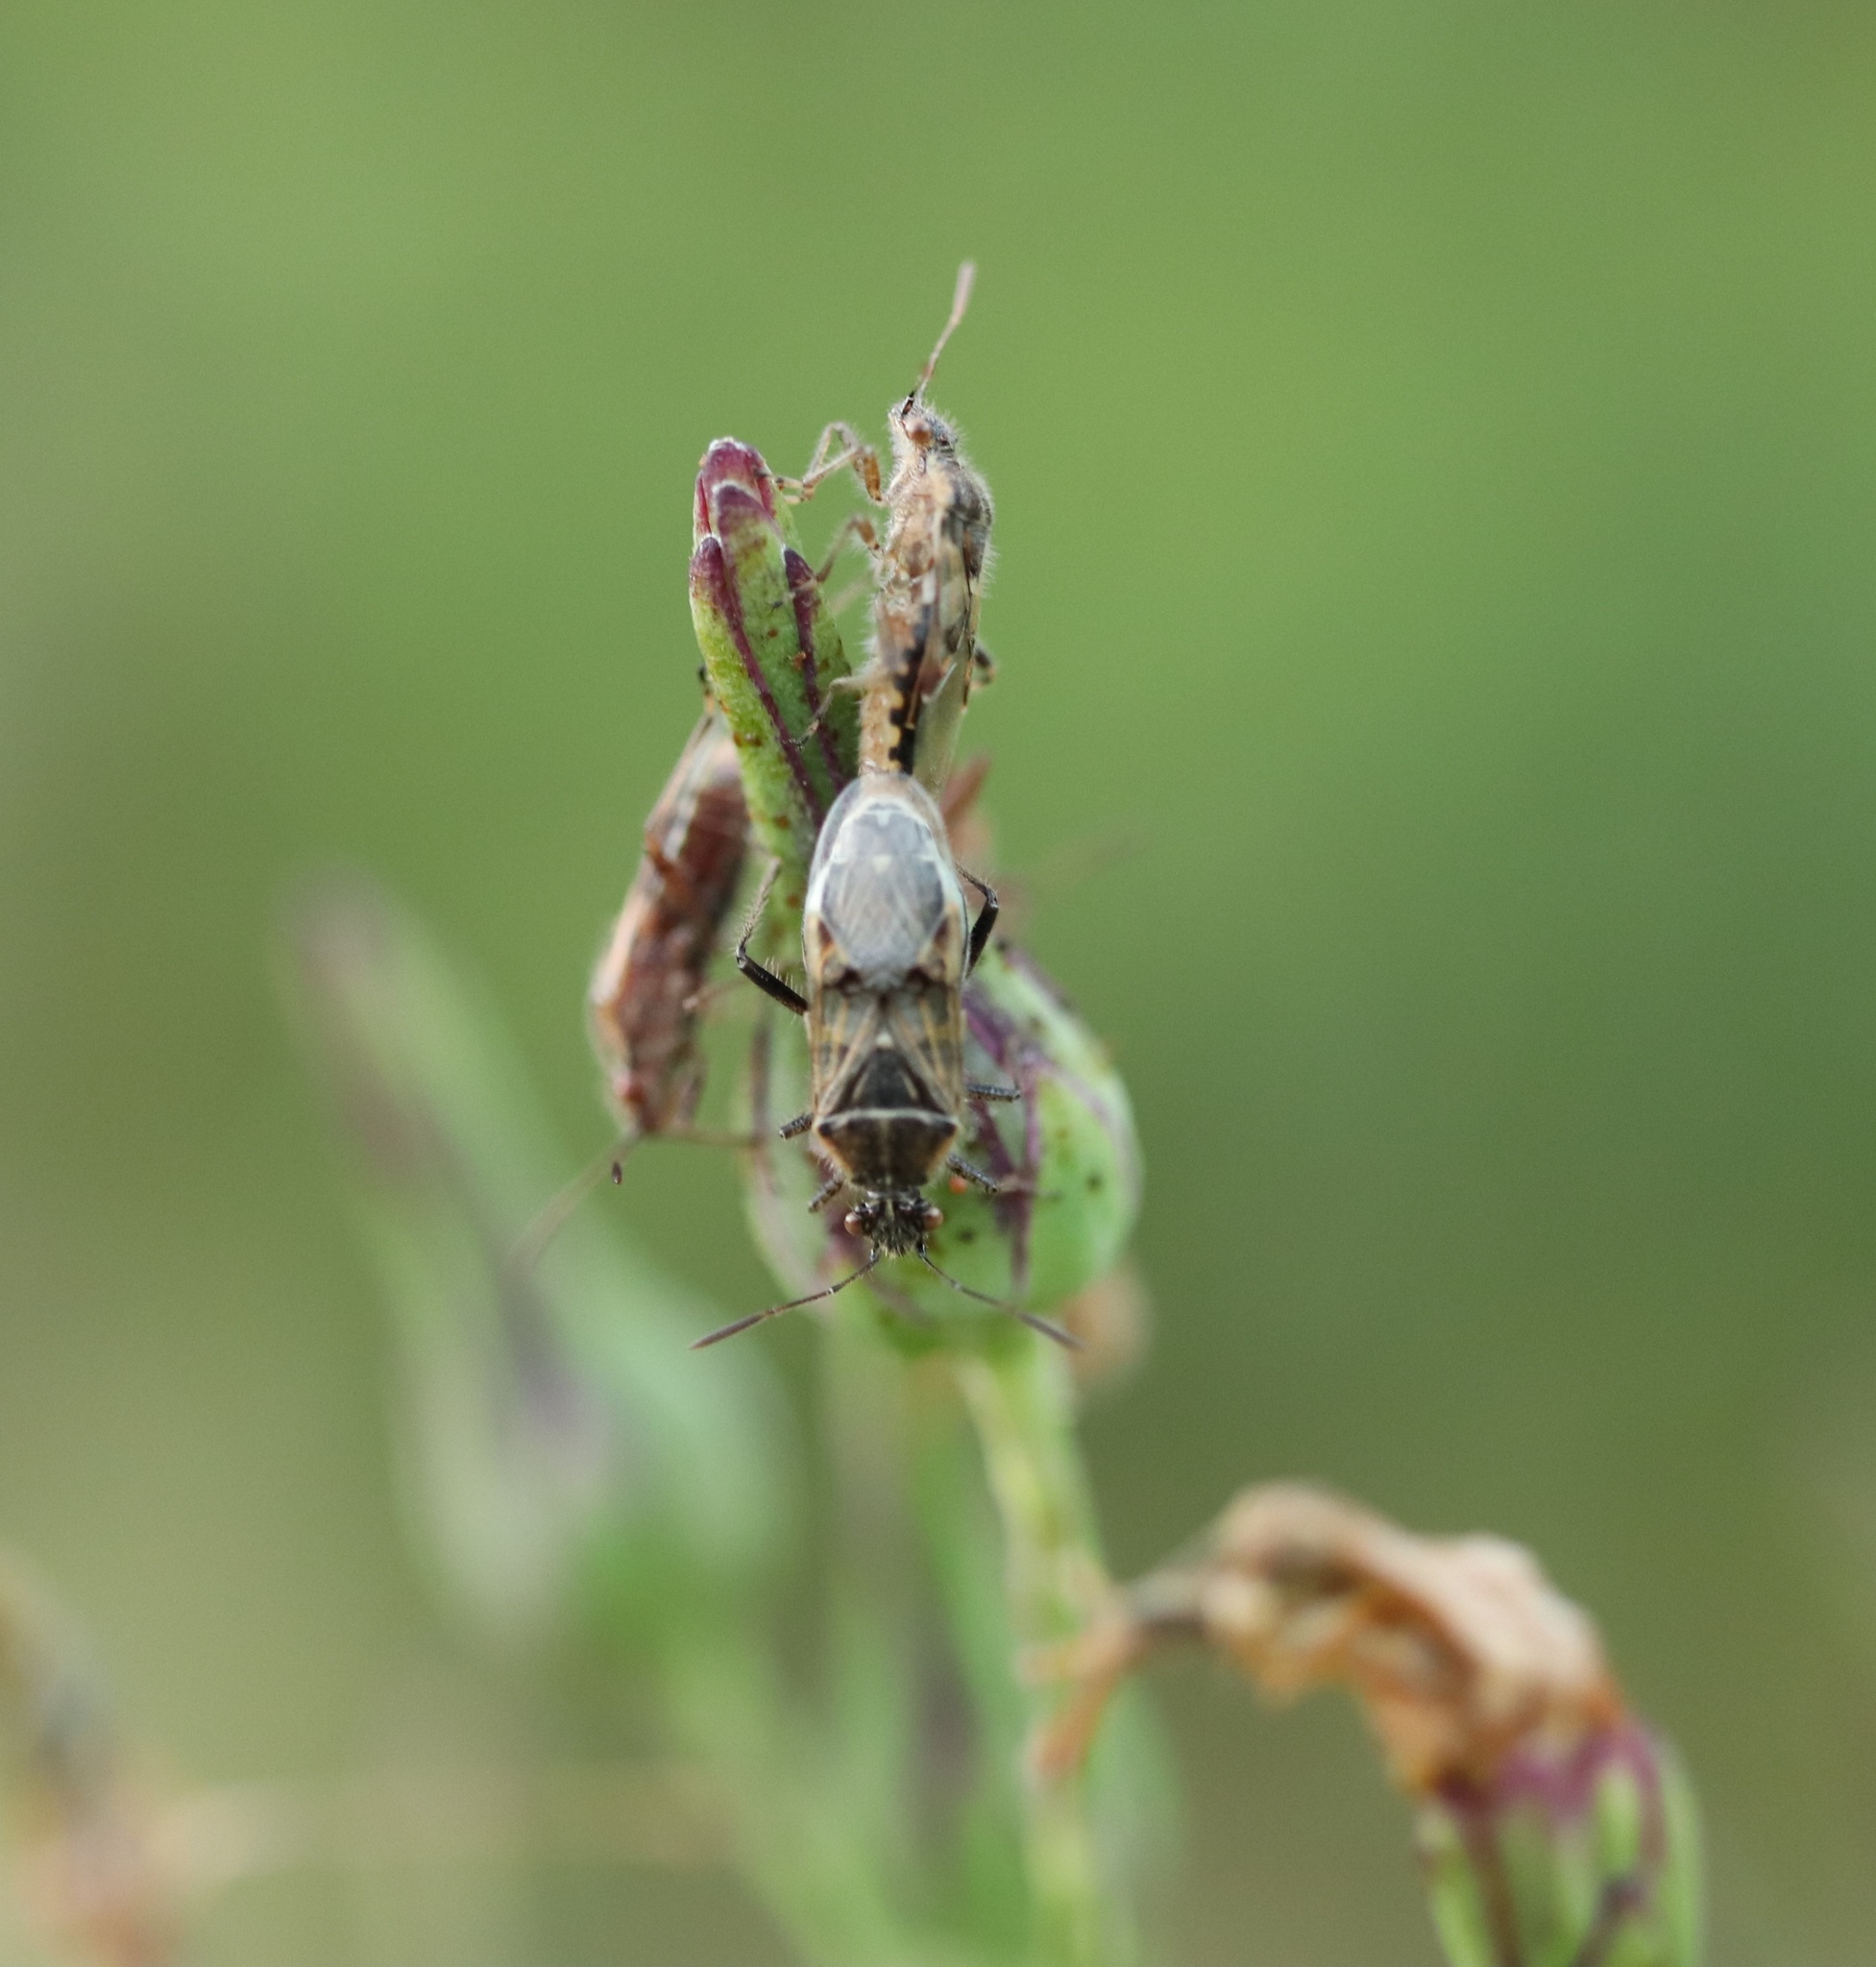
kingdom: Animalia
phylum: Arthropoda
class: Insecta
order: Hemiptera
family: Rhopalidae
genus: Liorhyssus
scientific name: Liorhyssus hyalinus
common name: Scentless plant bug
